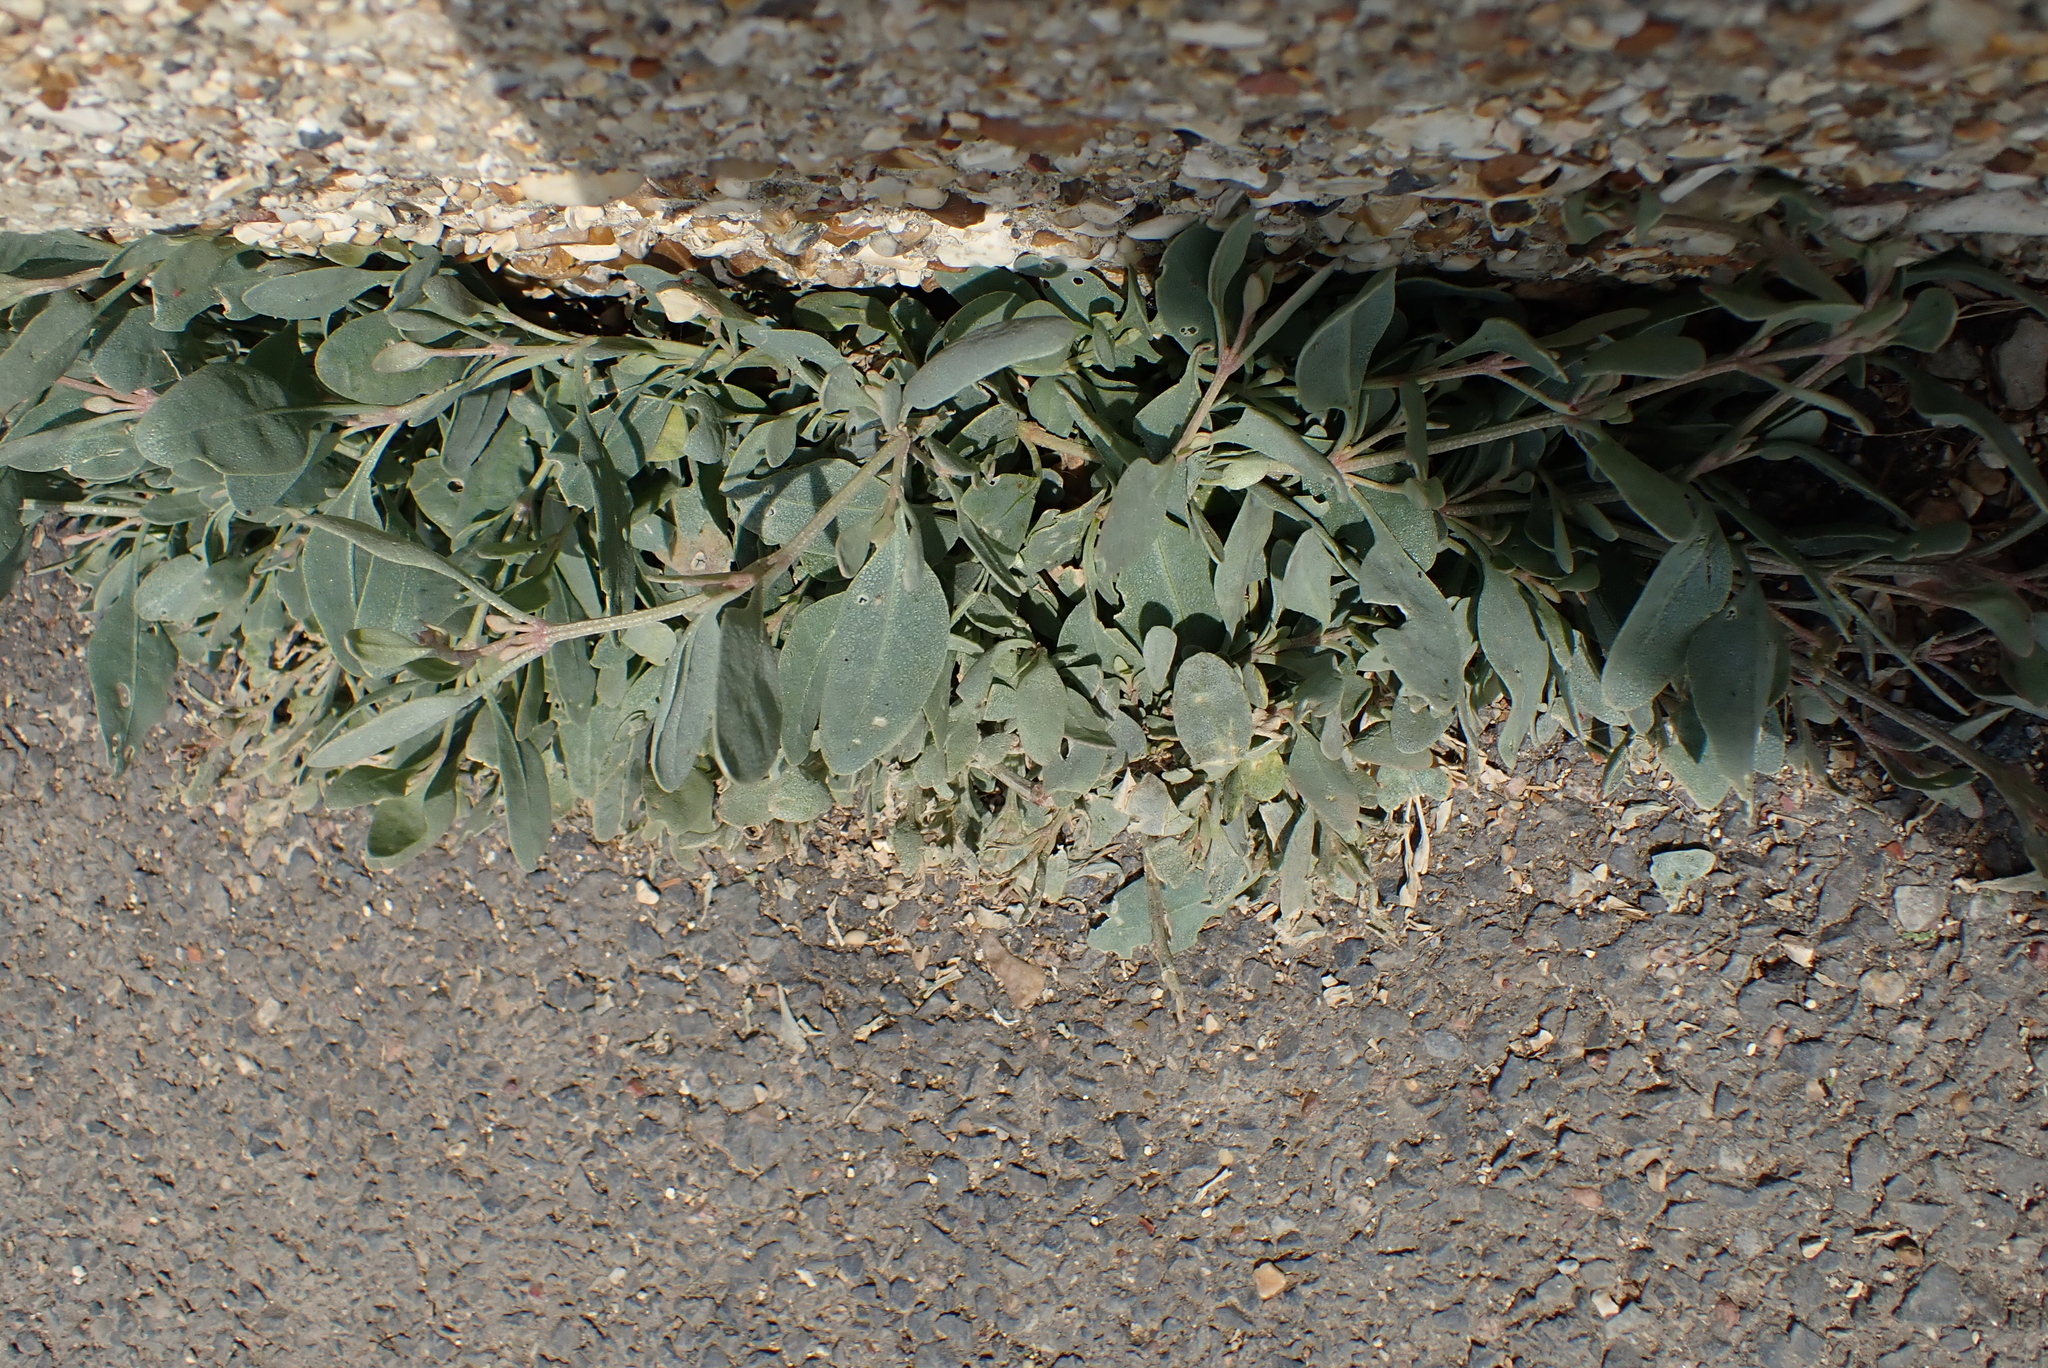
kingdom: Plantae
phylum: Tracheophyta
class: Magnoliopsida
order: Caryophyllales
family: Amaranthaceae
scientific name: Amaranthaceae
